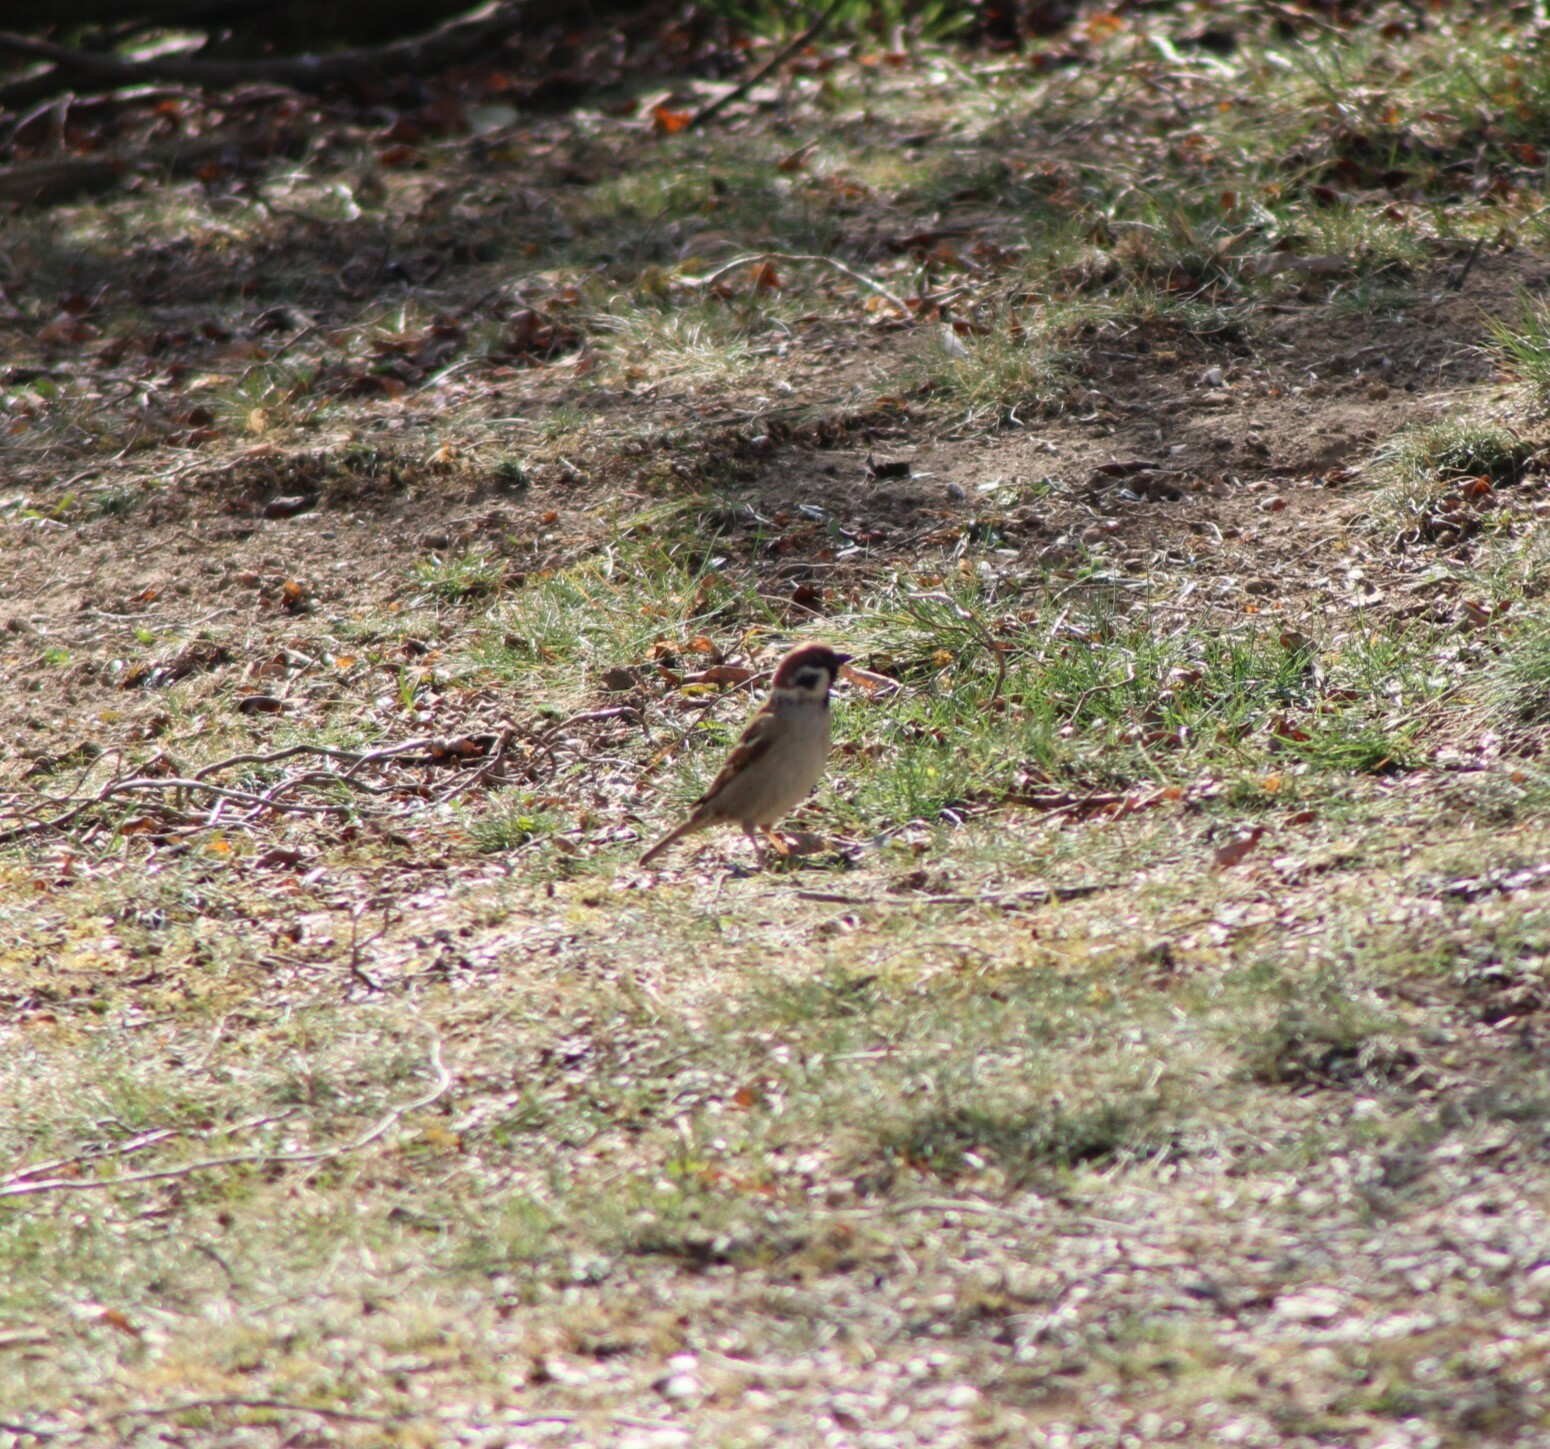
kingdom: Animalia
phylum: Chordata
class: Aves
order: Passeriformes
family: Passeridae
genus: Passer
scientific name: Passer montanus
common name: Eurasian tree sparrow
